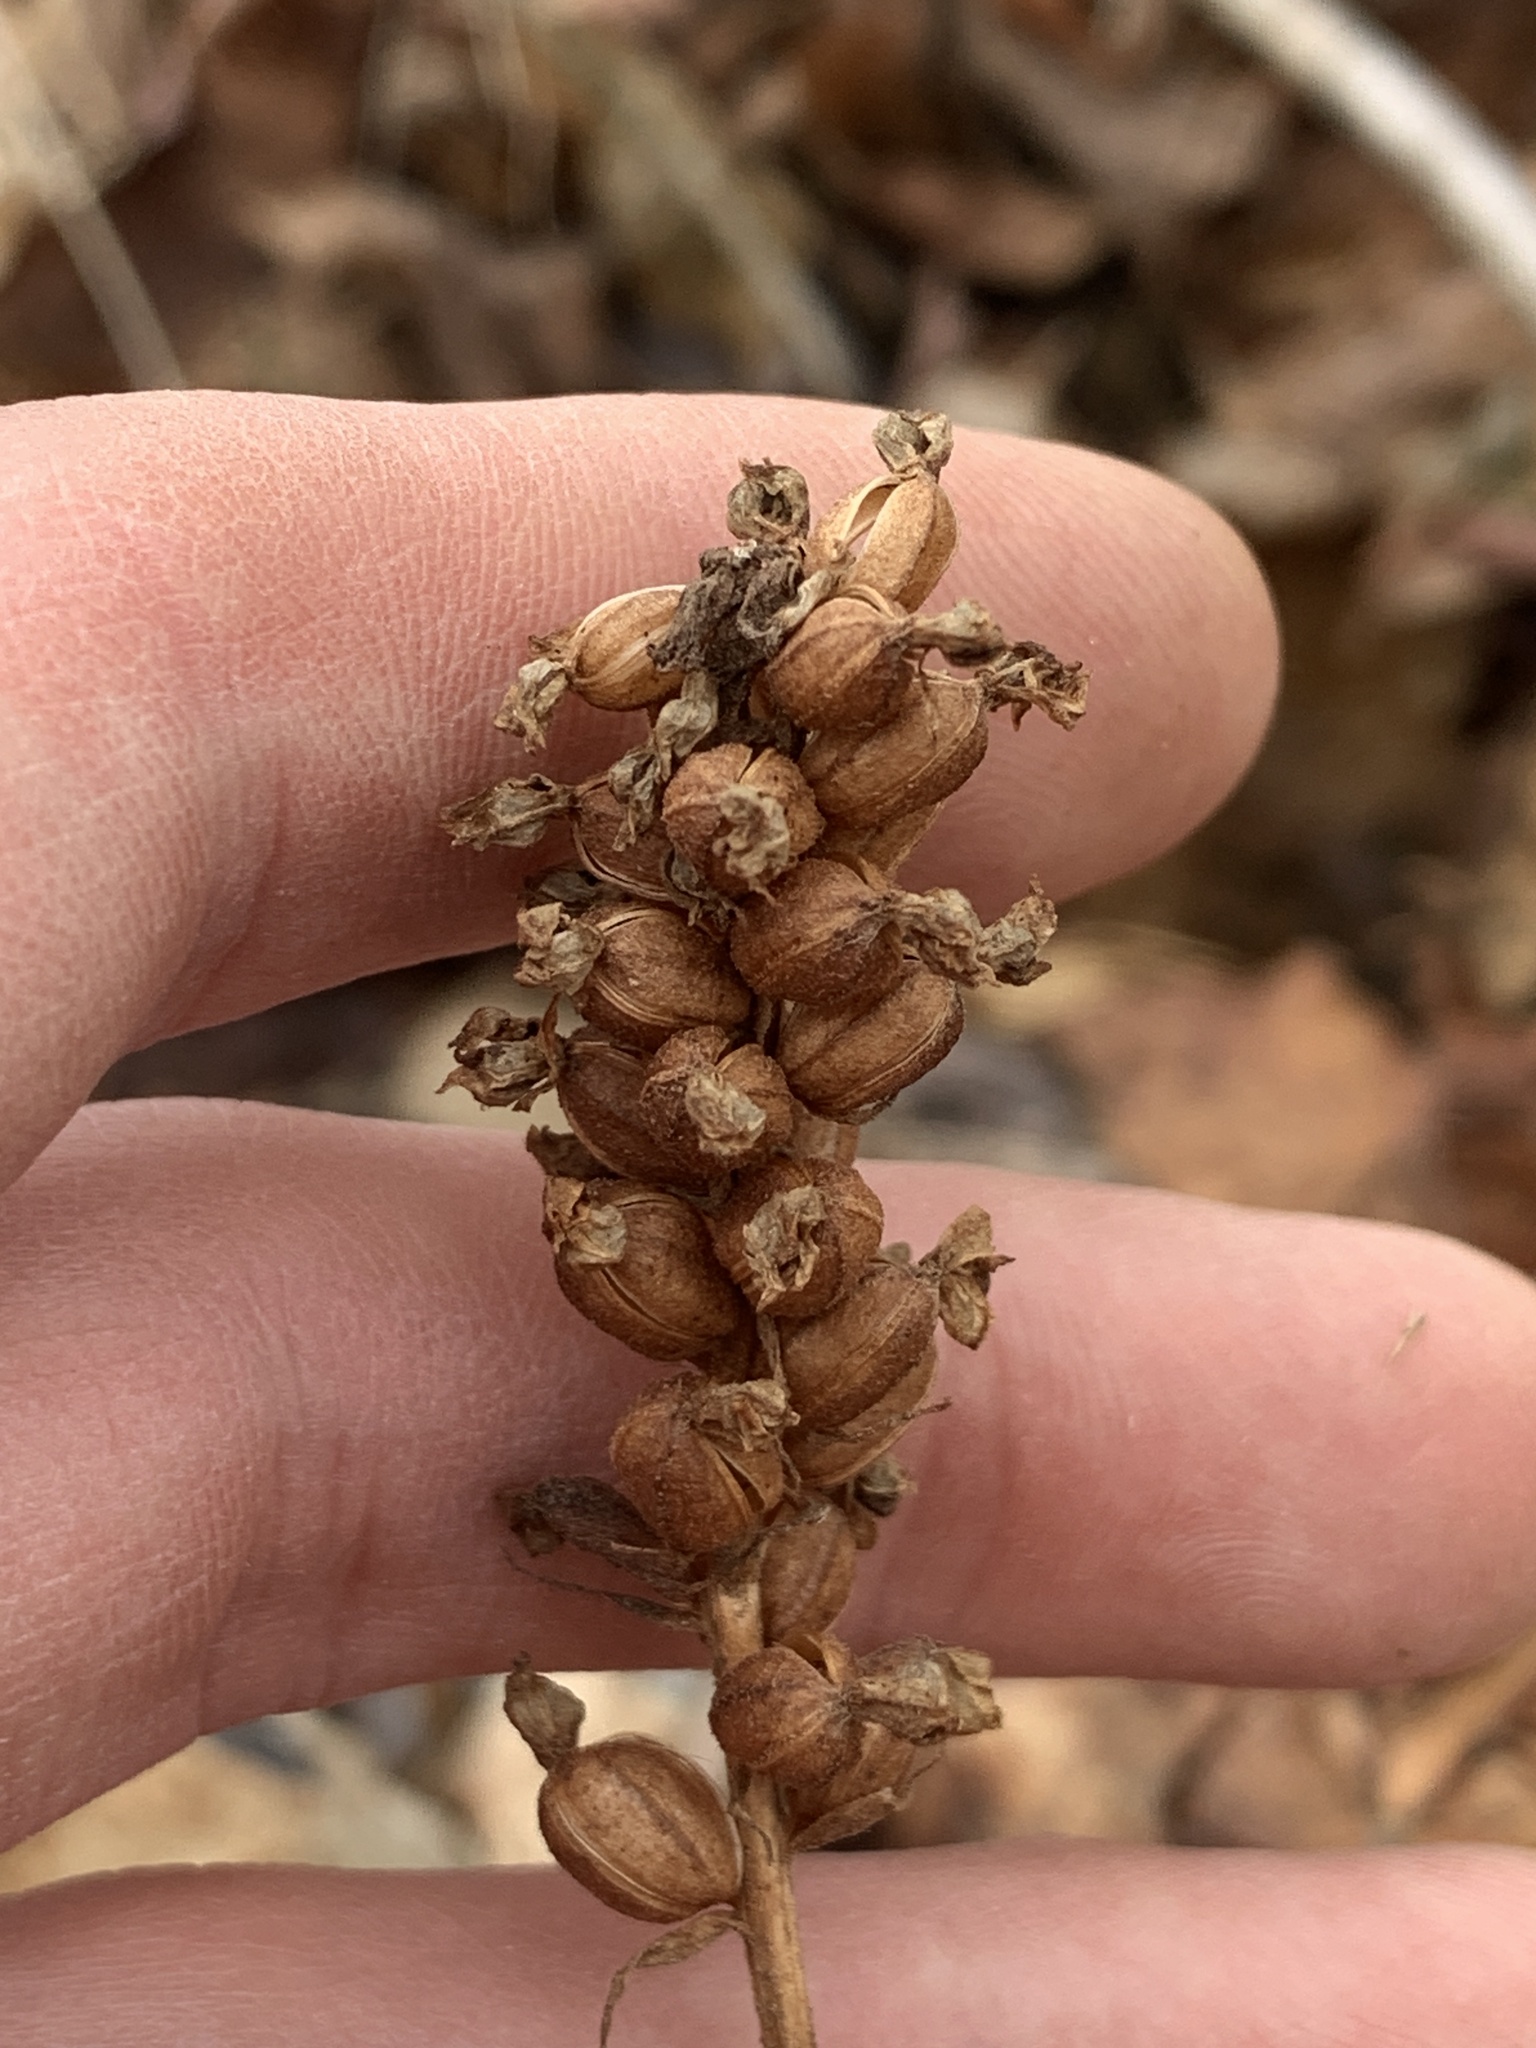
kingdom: Plantae
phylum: Tracheophyta
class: Liliopsida
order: Asparagales
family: Orchidaceae
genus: Goodyera
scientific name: Goodyera pubescens
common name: Downy rattlesnake-plantain
